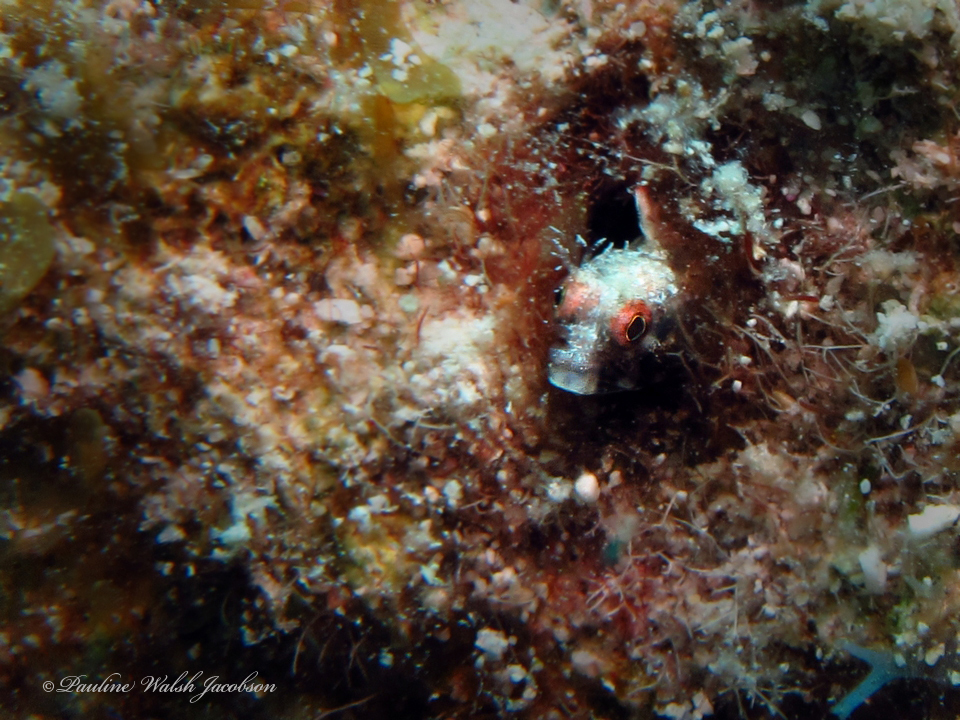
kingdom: Animalia
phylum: Chordata
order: Perciformes
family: Chaenopsidae
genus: Acanthemblemaria
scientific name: Acanthemblemaria aspera
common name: Roughhead blenny
